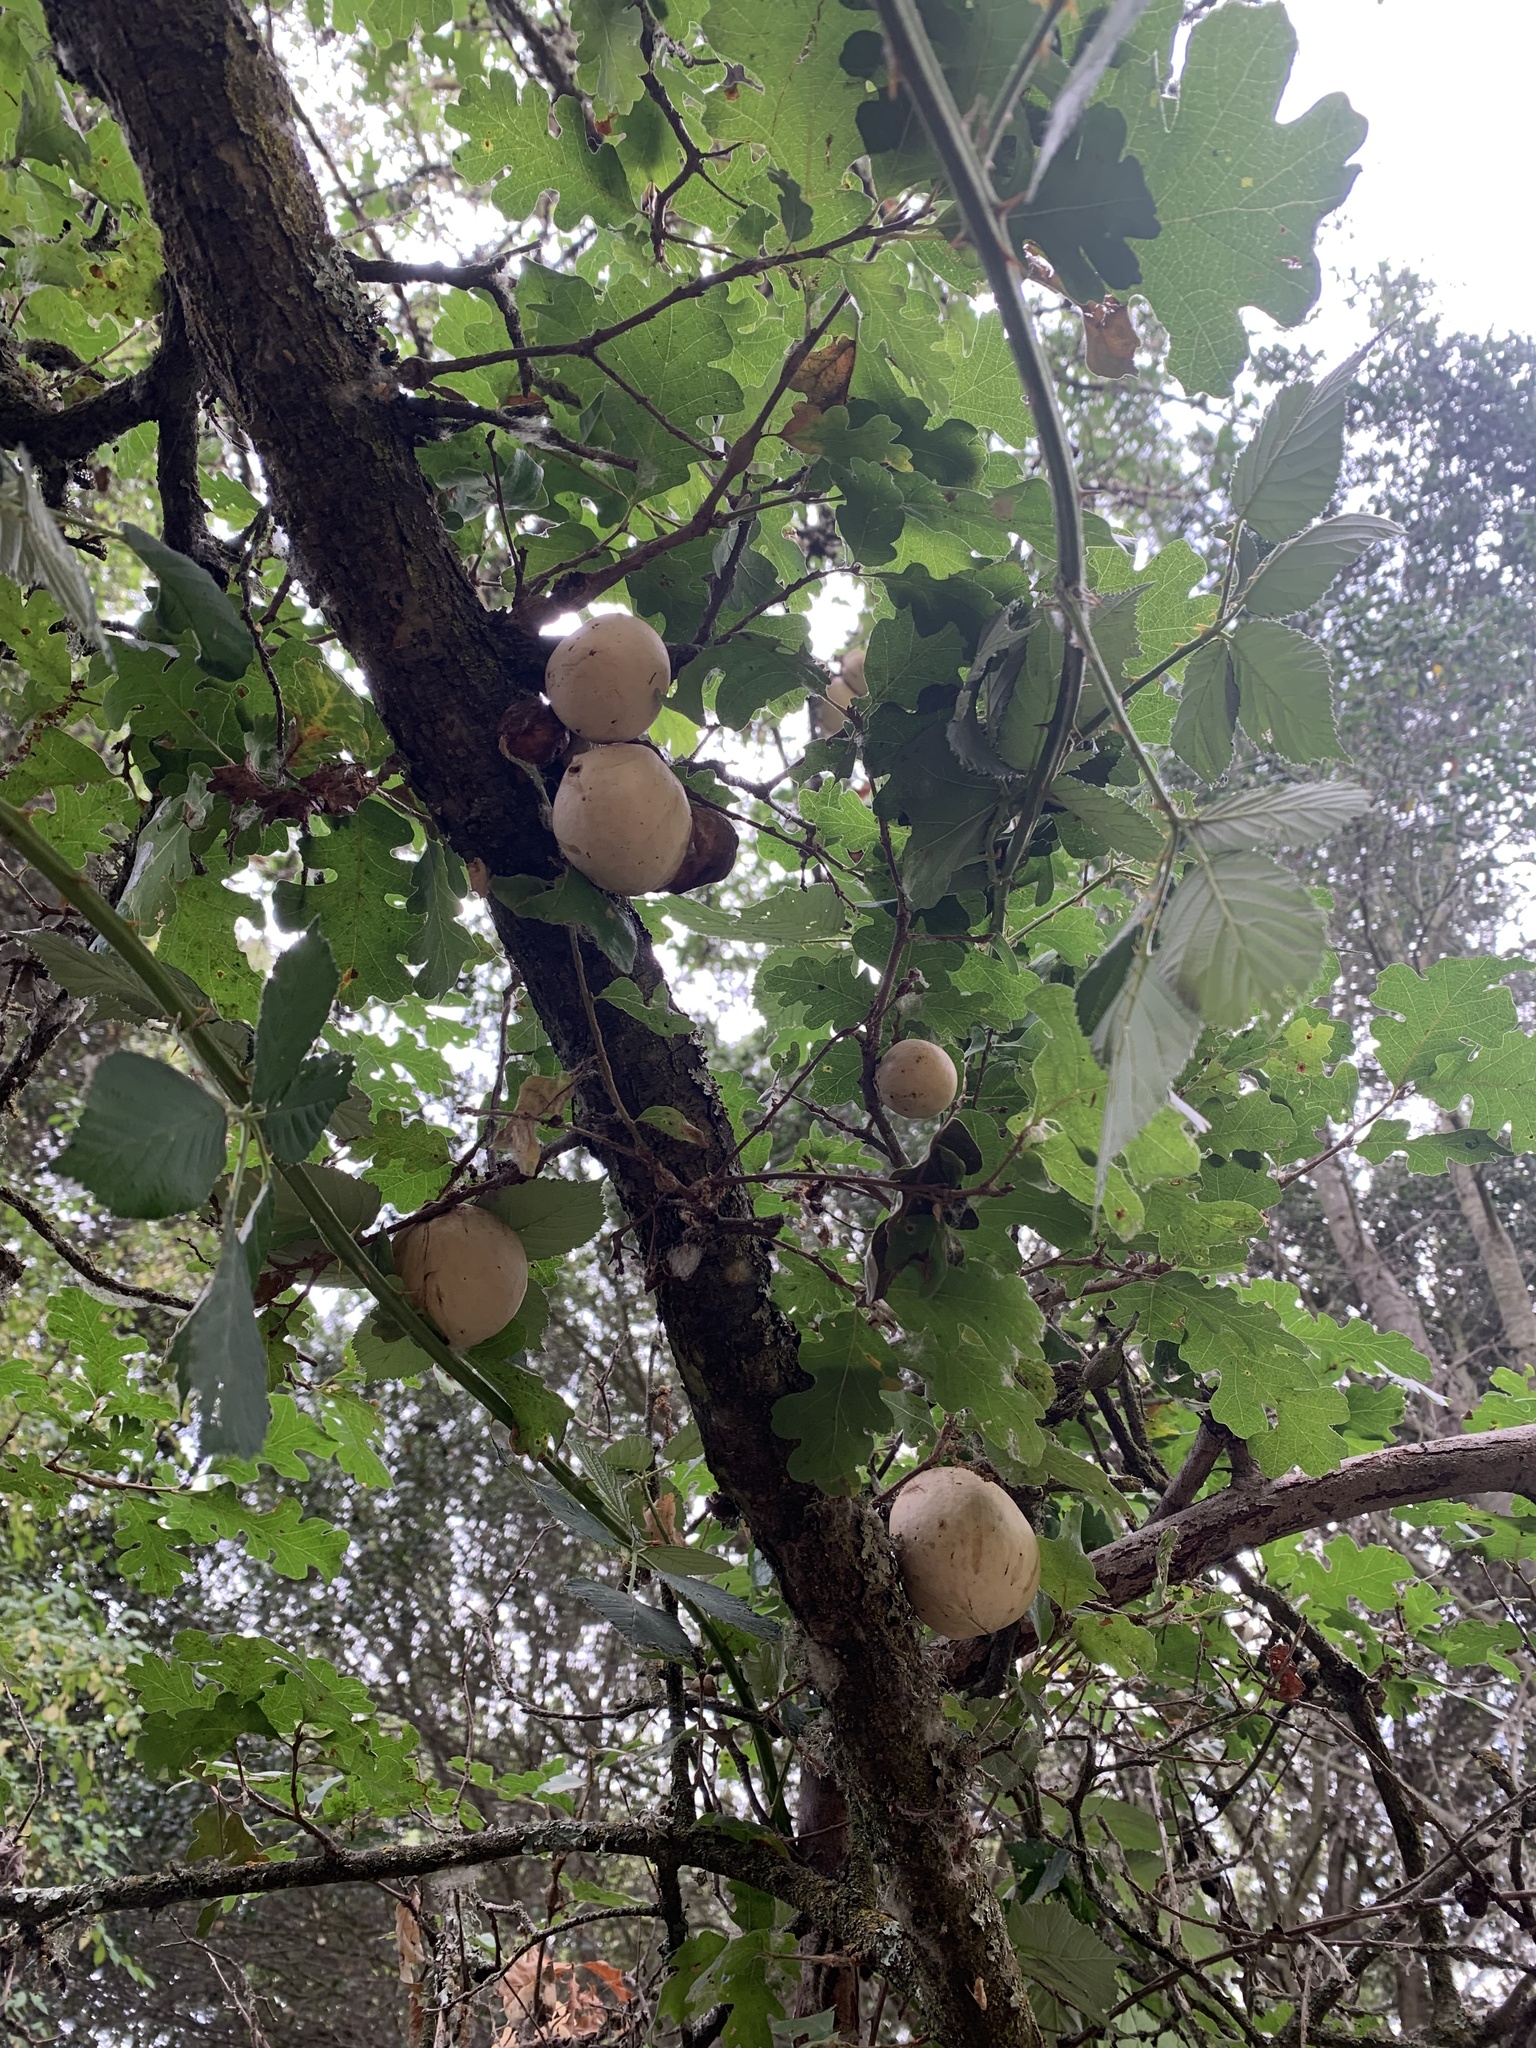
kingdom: Animalia
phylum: Arthropoda
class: Insecta
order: Hymenoptera
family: Cynipidae
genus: Andricus
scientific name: Andricus quercuscalifornicus
